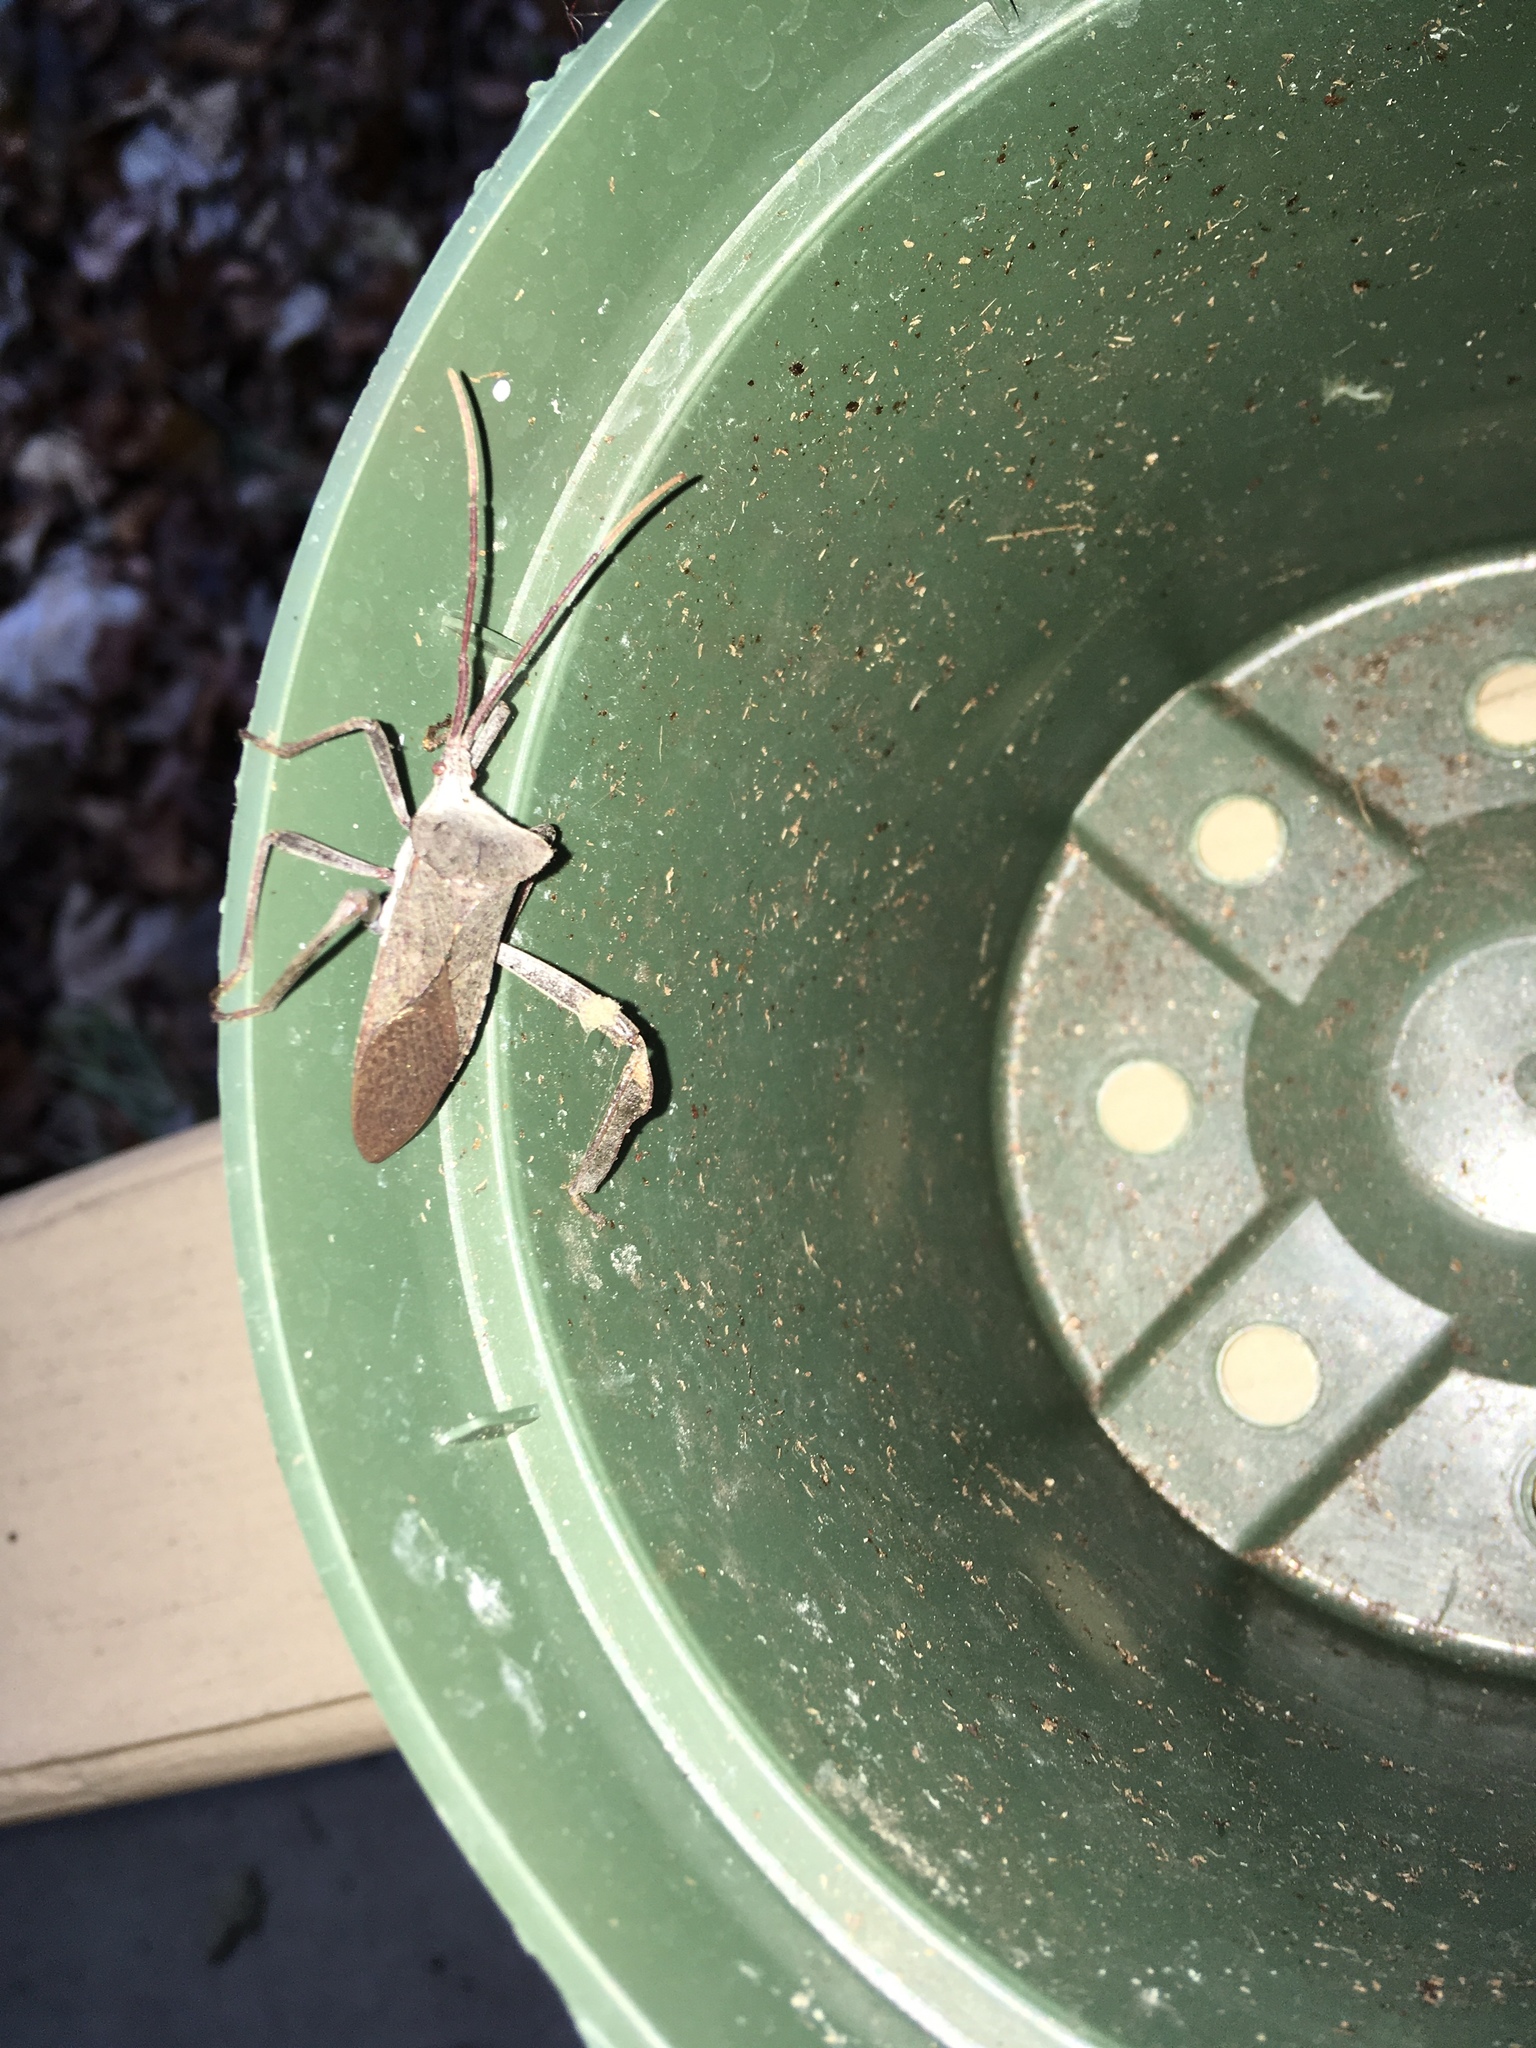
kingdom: Animalia
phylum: Arthropoda
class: Insecta
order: Hemiptera
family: Coreidae
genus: Acanthocephala
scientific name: Acanthocephala declivis
